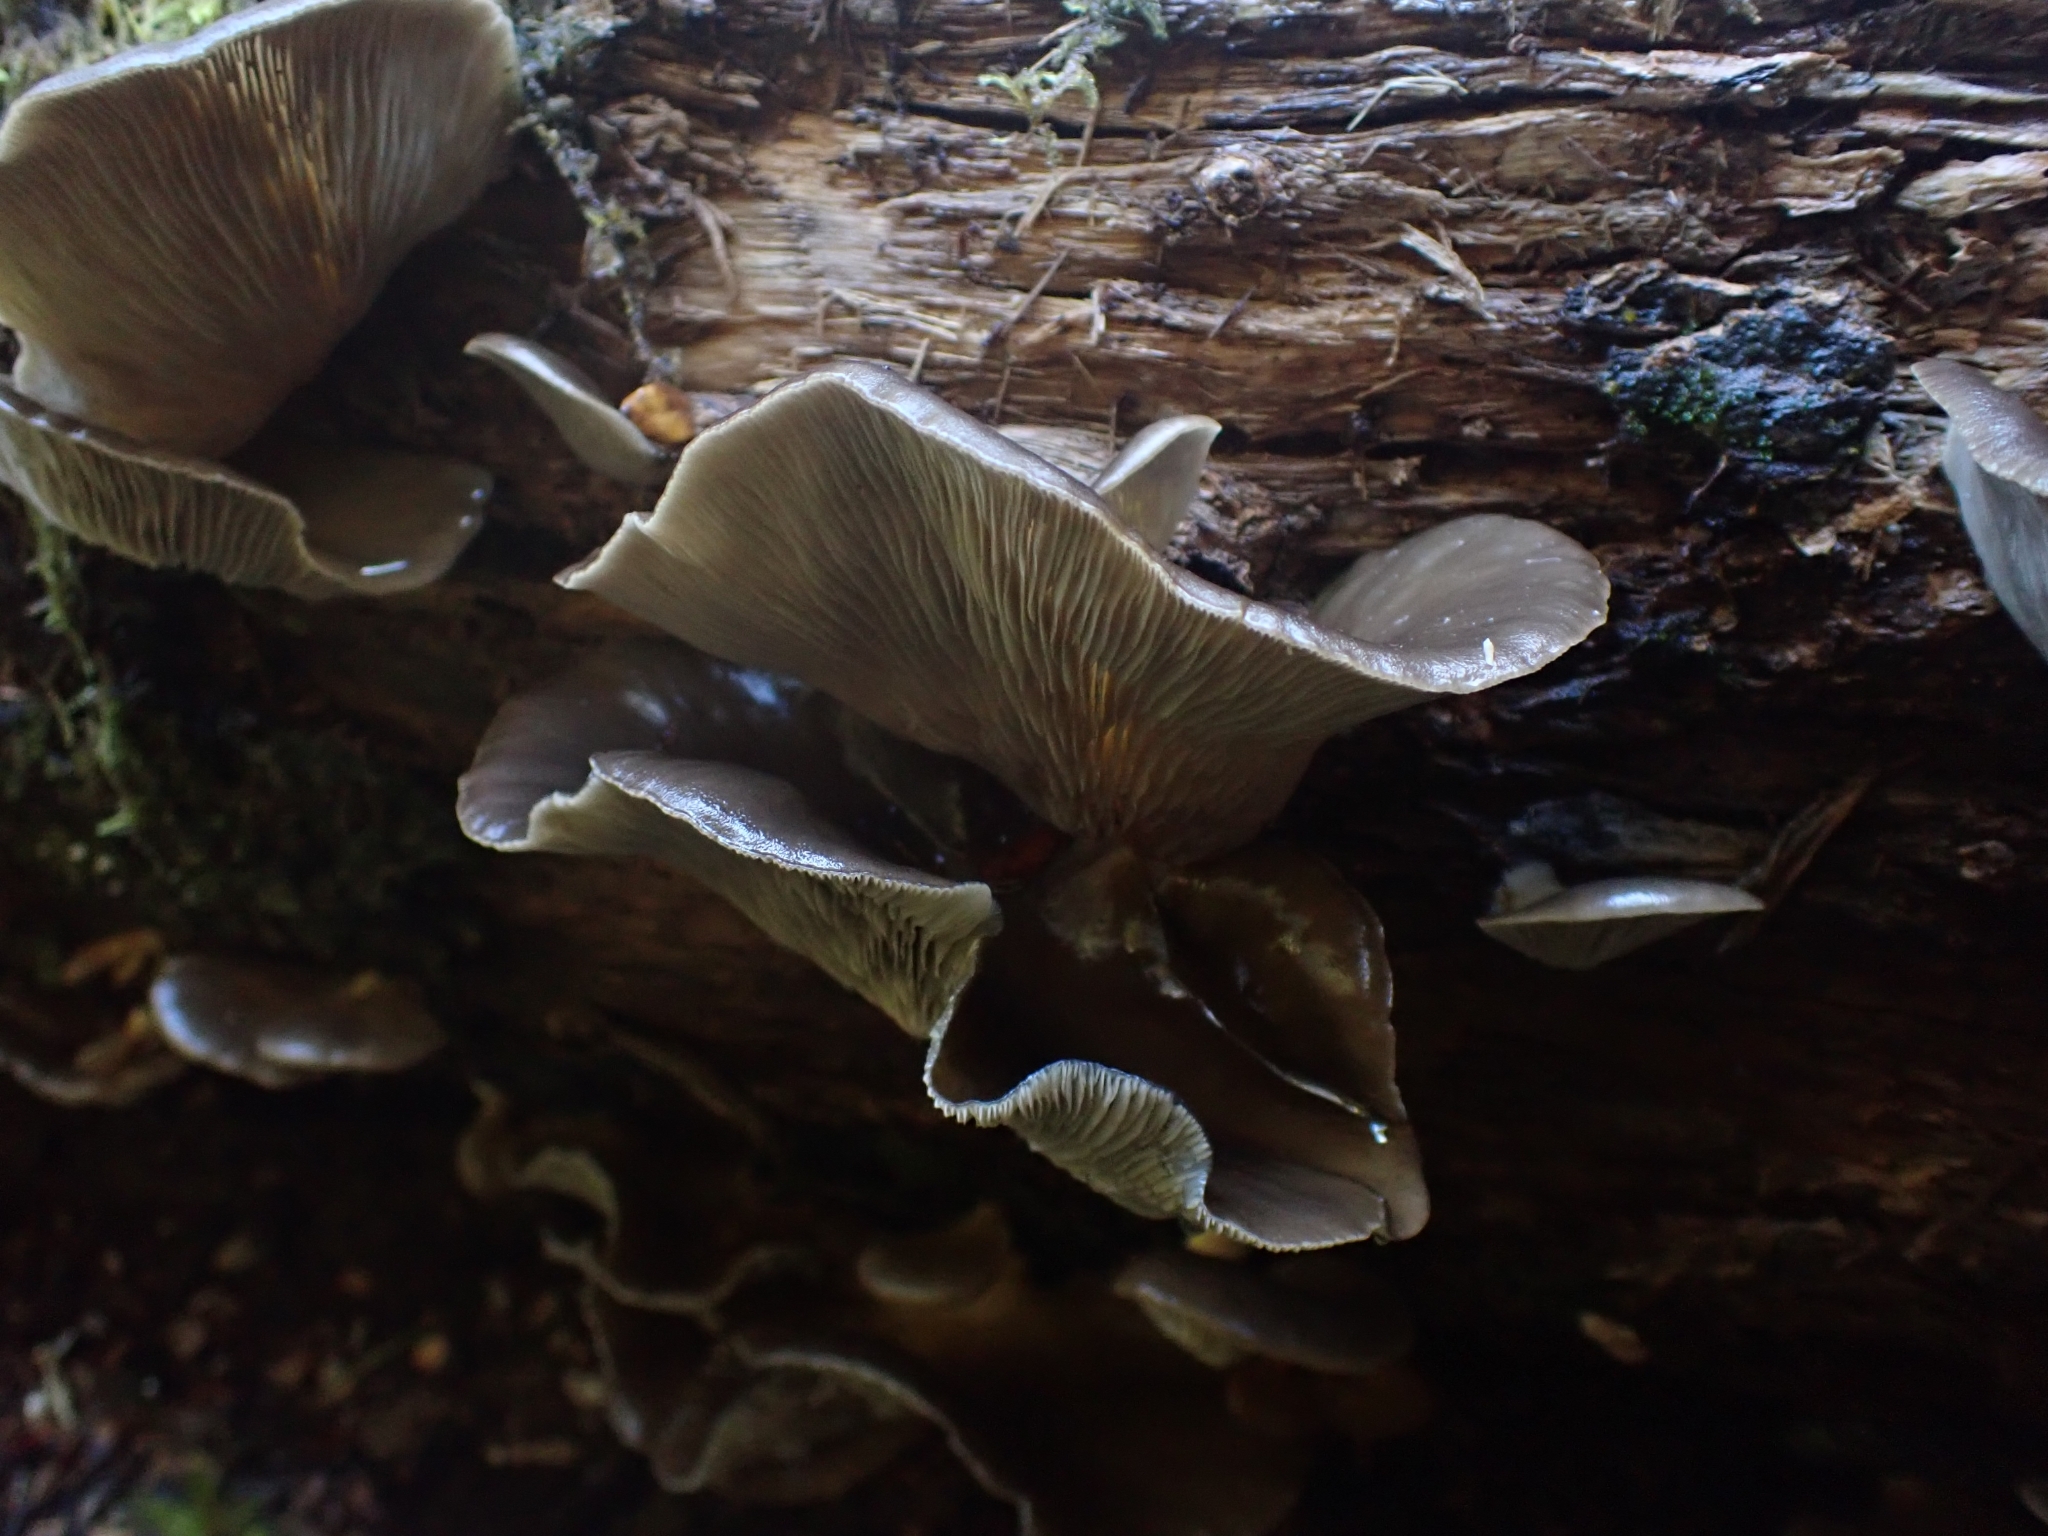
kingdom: Fungi
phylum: Basidiomycota
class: Agaricomycetes
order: Agaricales
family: Pleurotaceae
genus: Pleurotus
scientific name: Pleurotus purpureo-olivaceus
